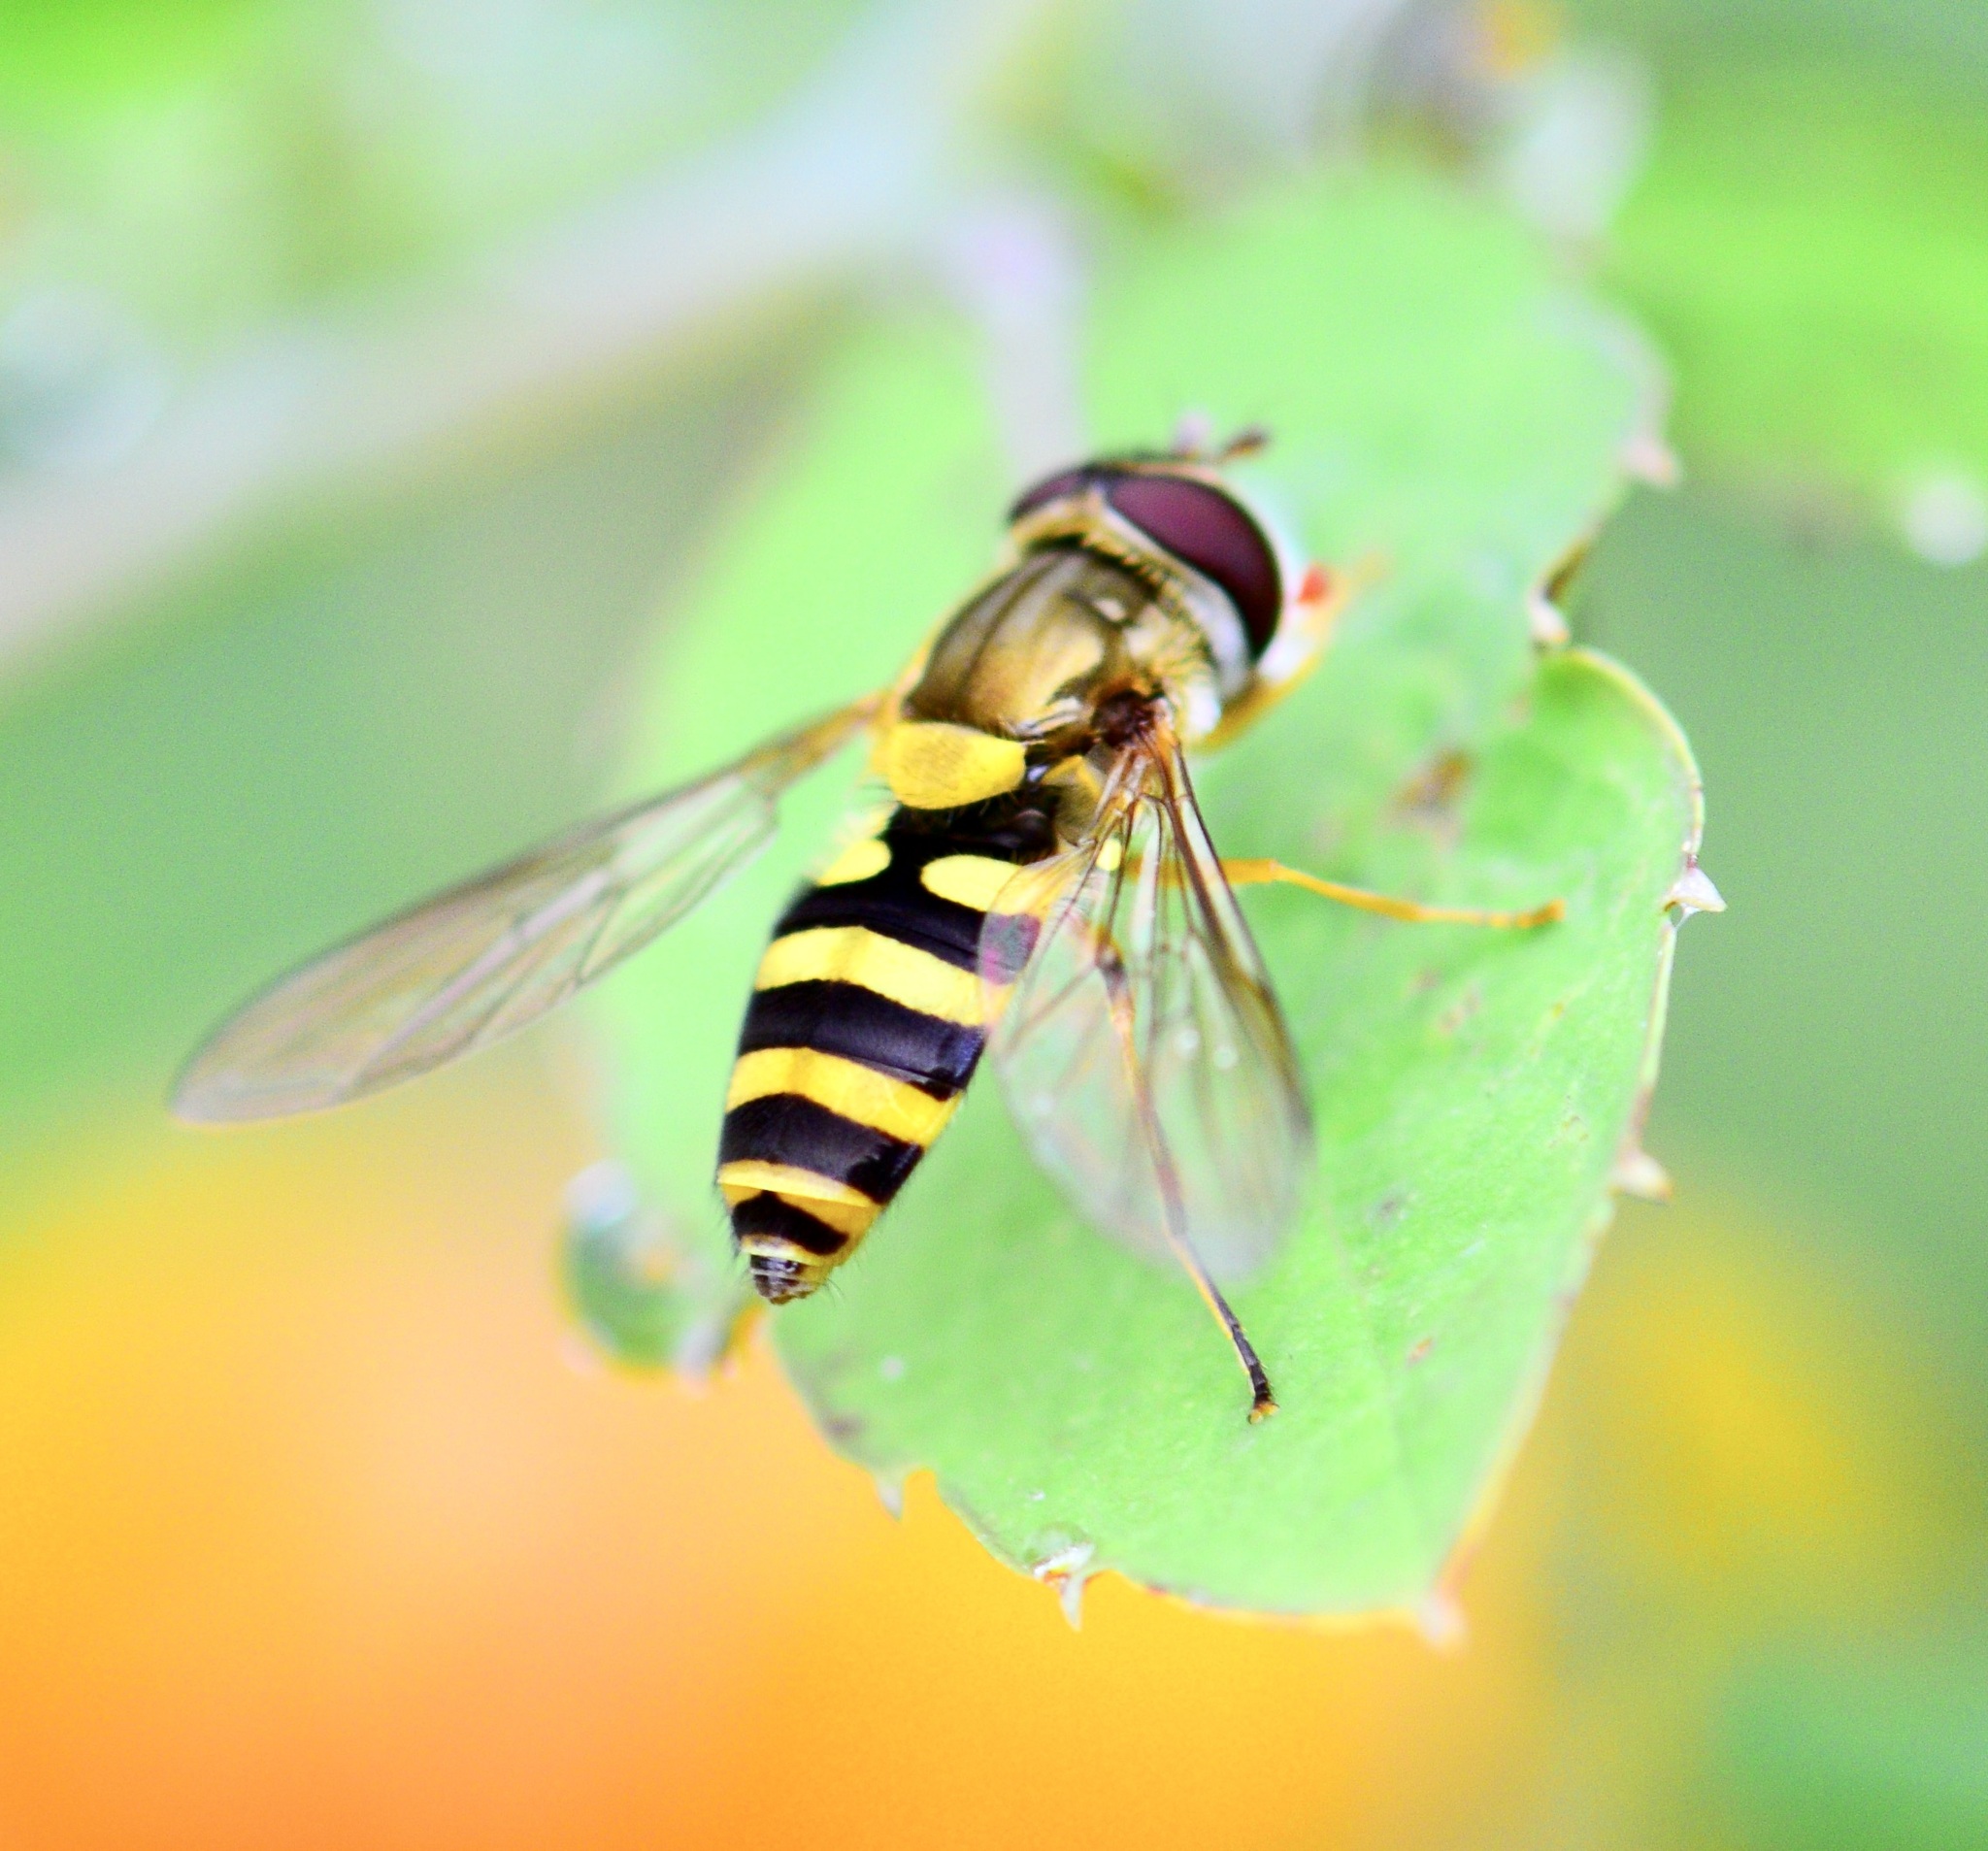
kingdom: Animalia
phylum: Arthropoda
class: Insecta
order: Diptera
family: Syrphidae
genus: Syrphus
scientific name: Syrphus rectus
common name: Yellow-legged flower fly
